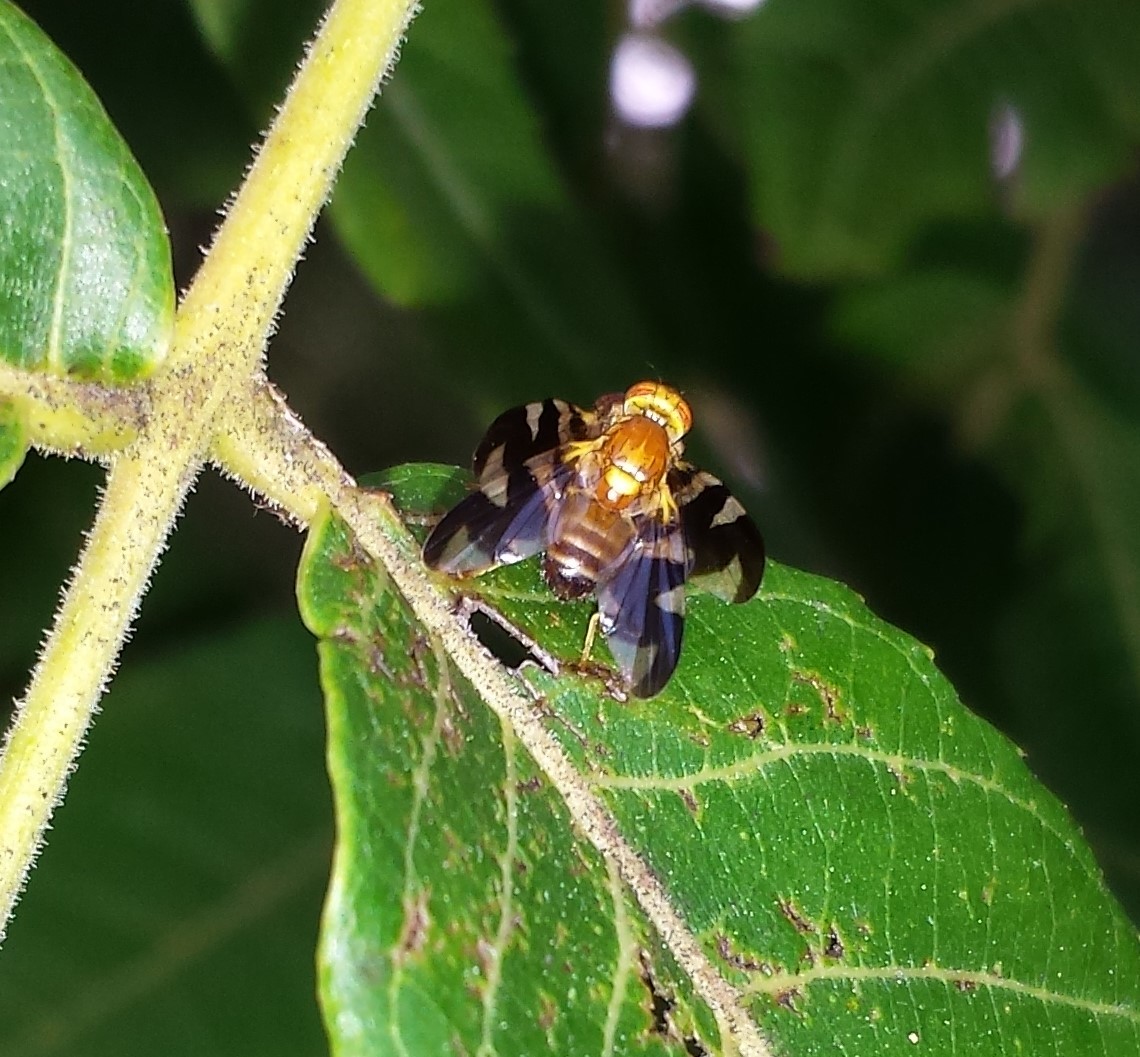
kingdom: Animalia
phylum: Arthropoda
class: Insecta
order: Diptera
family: Tephritidae
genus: Rhagoletis
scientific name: Rhagoletis suavis
